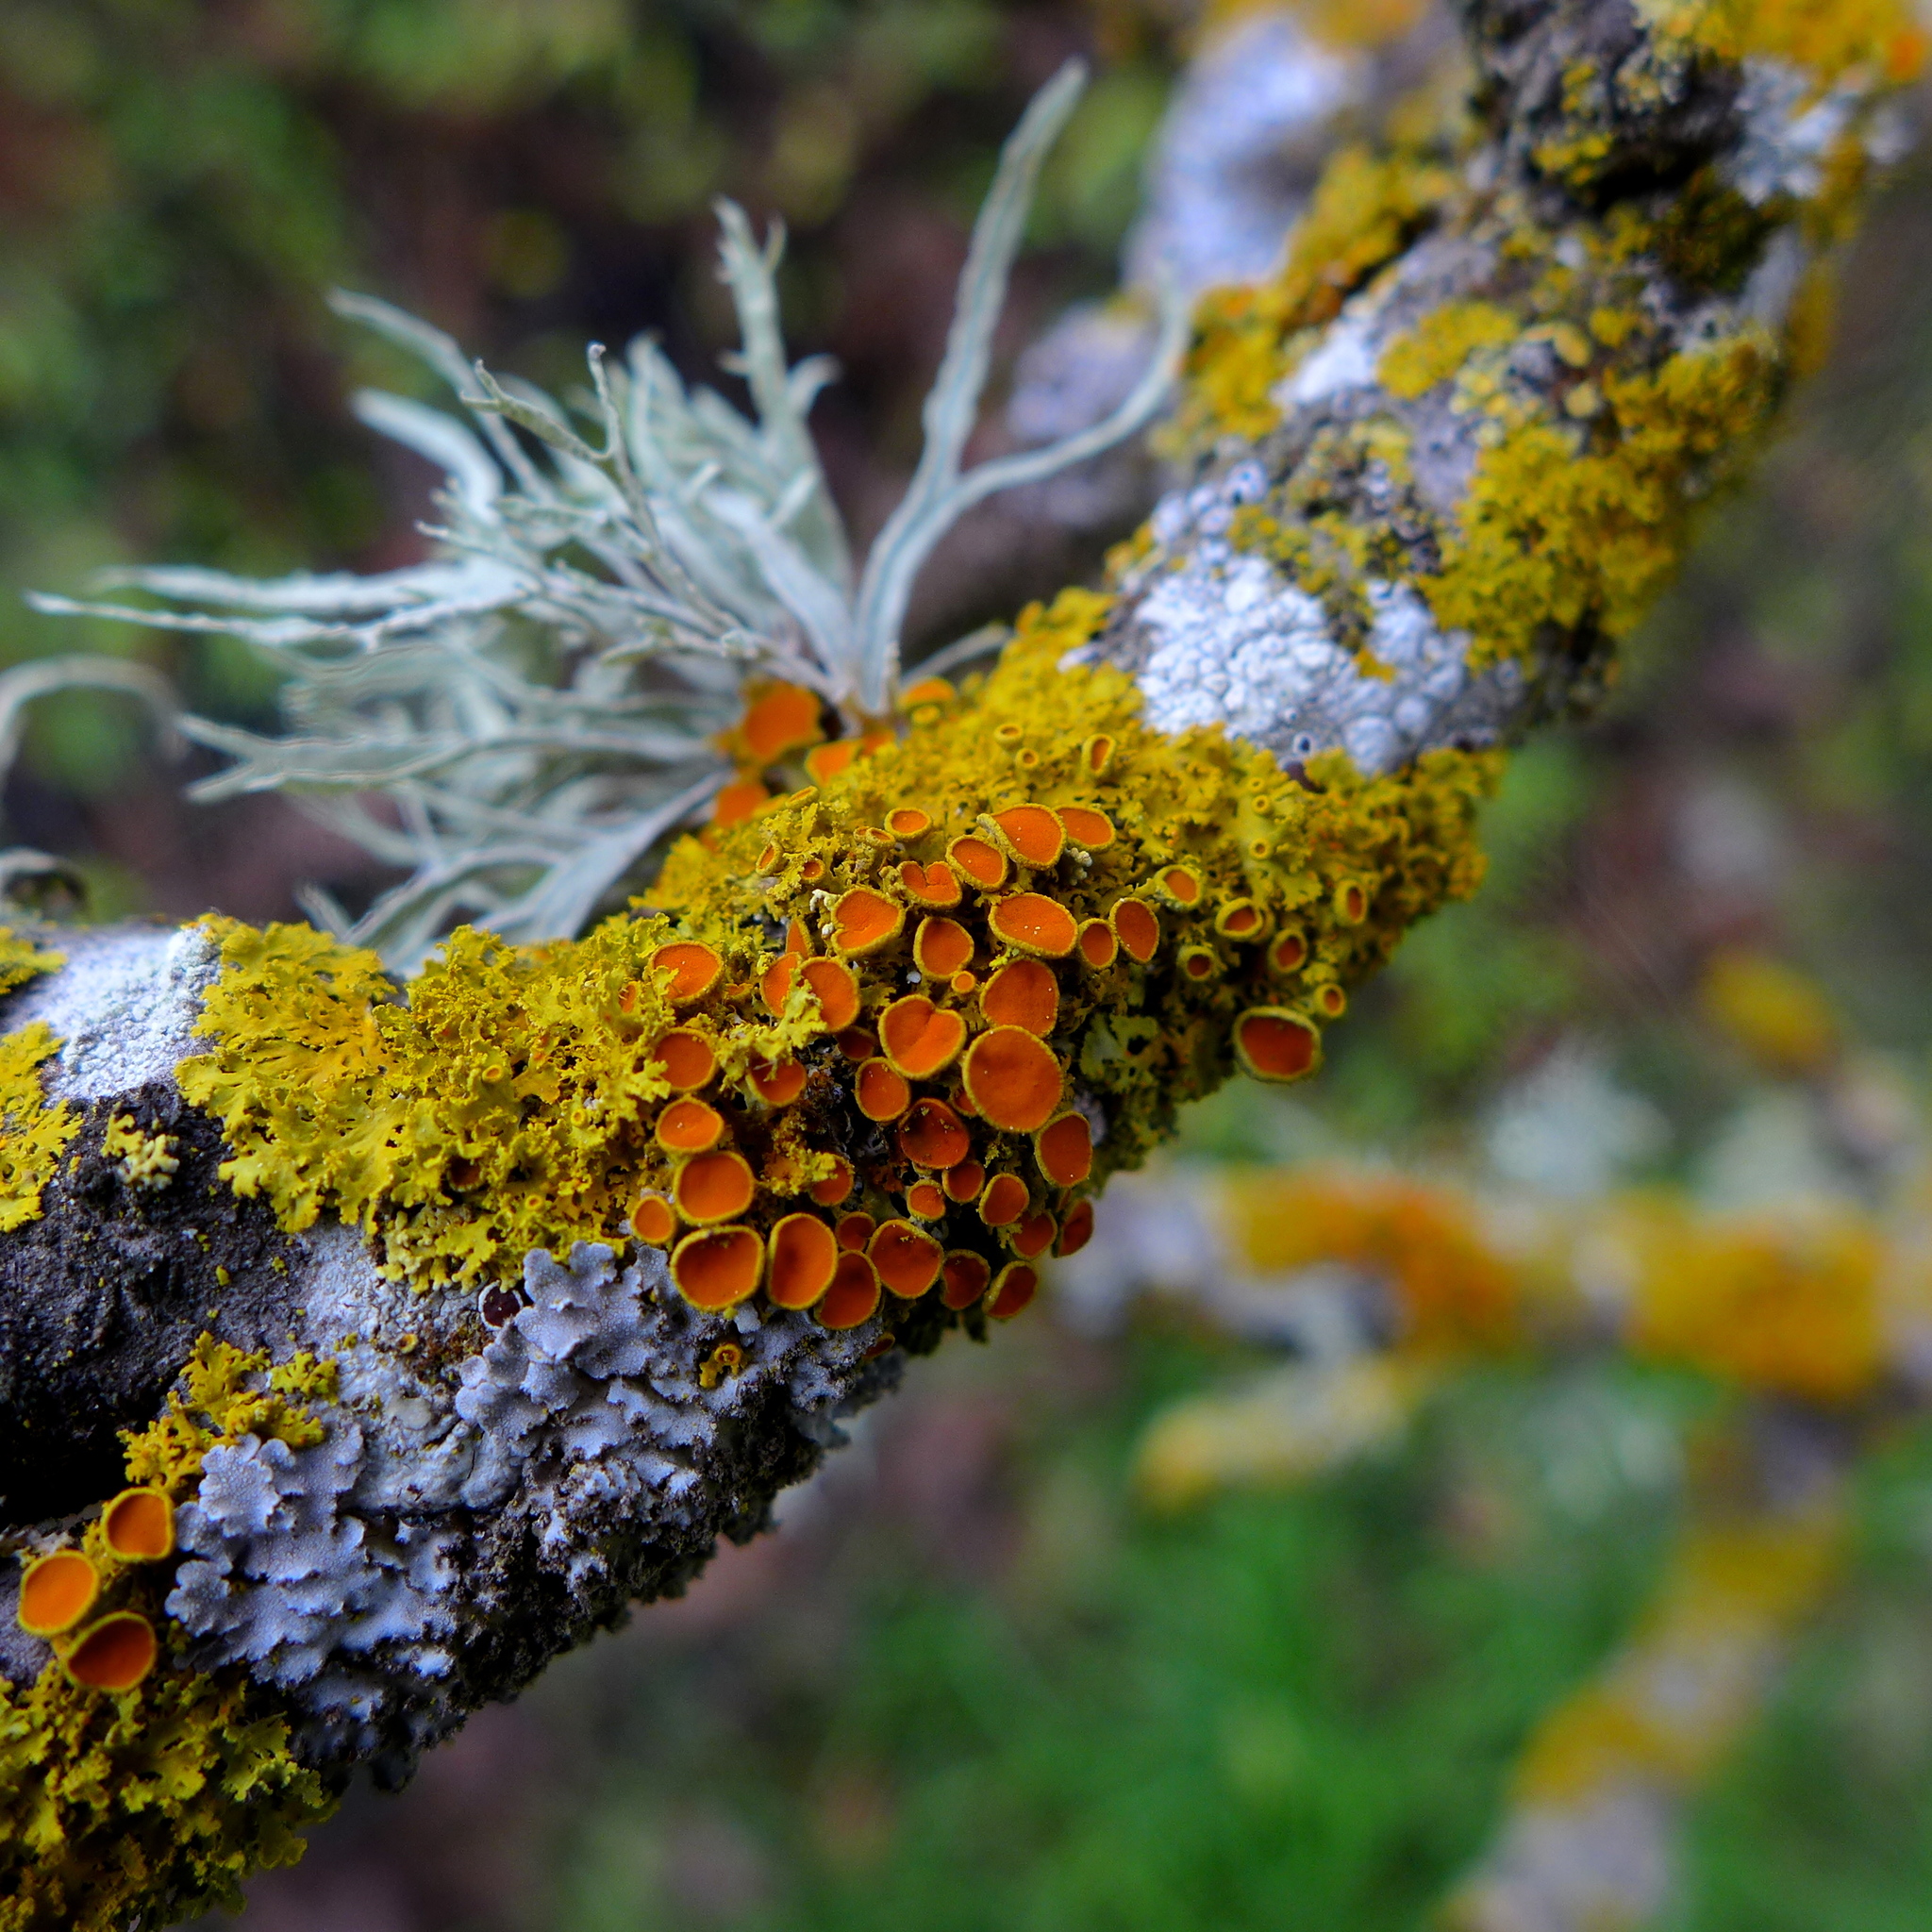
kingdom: Fungi
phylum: Ascomycota
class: Lecanoromycetes
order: Teloschistales
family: Teloschistaceae
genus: Gallowayella
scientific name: Gallowayella hasseana
